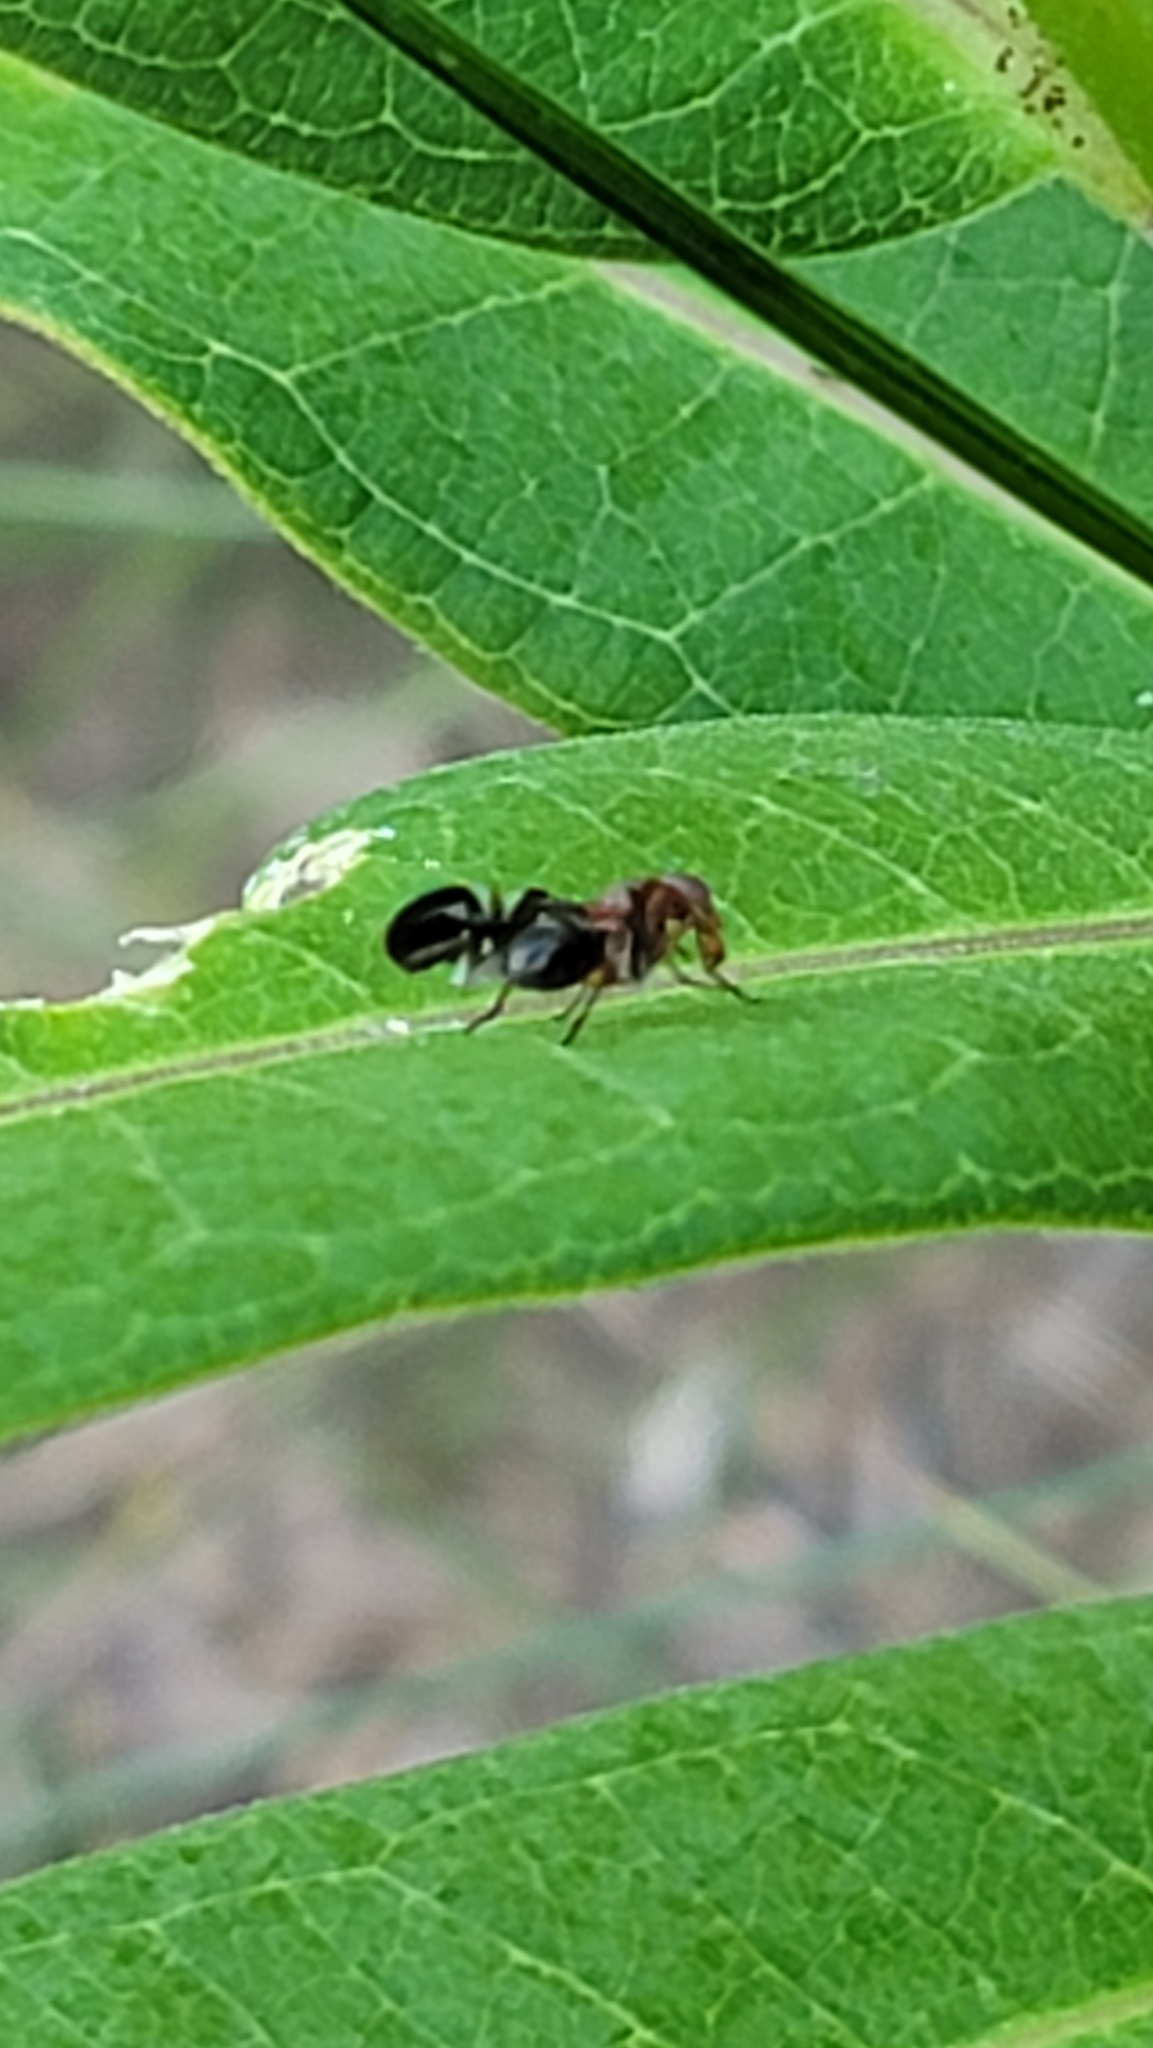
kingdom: Animalia
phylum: Arthropoda
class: Insecta
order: Diptera
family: Ulidiidae
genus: Delphinia
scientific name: Delphinia picta
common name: Common picture-winged fly
